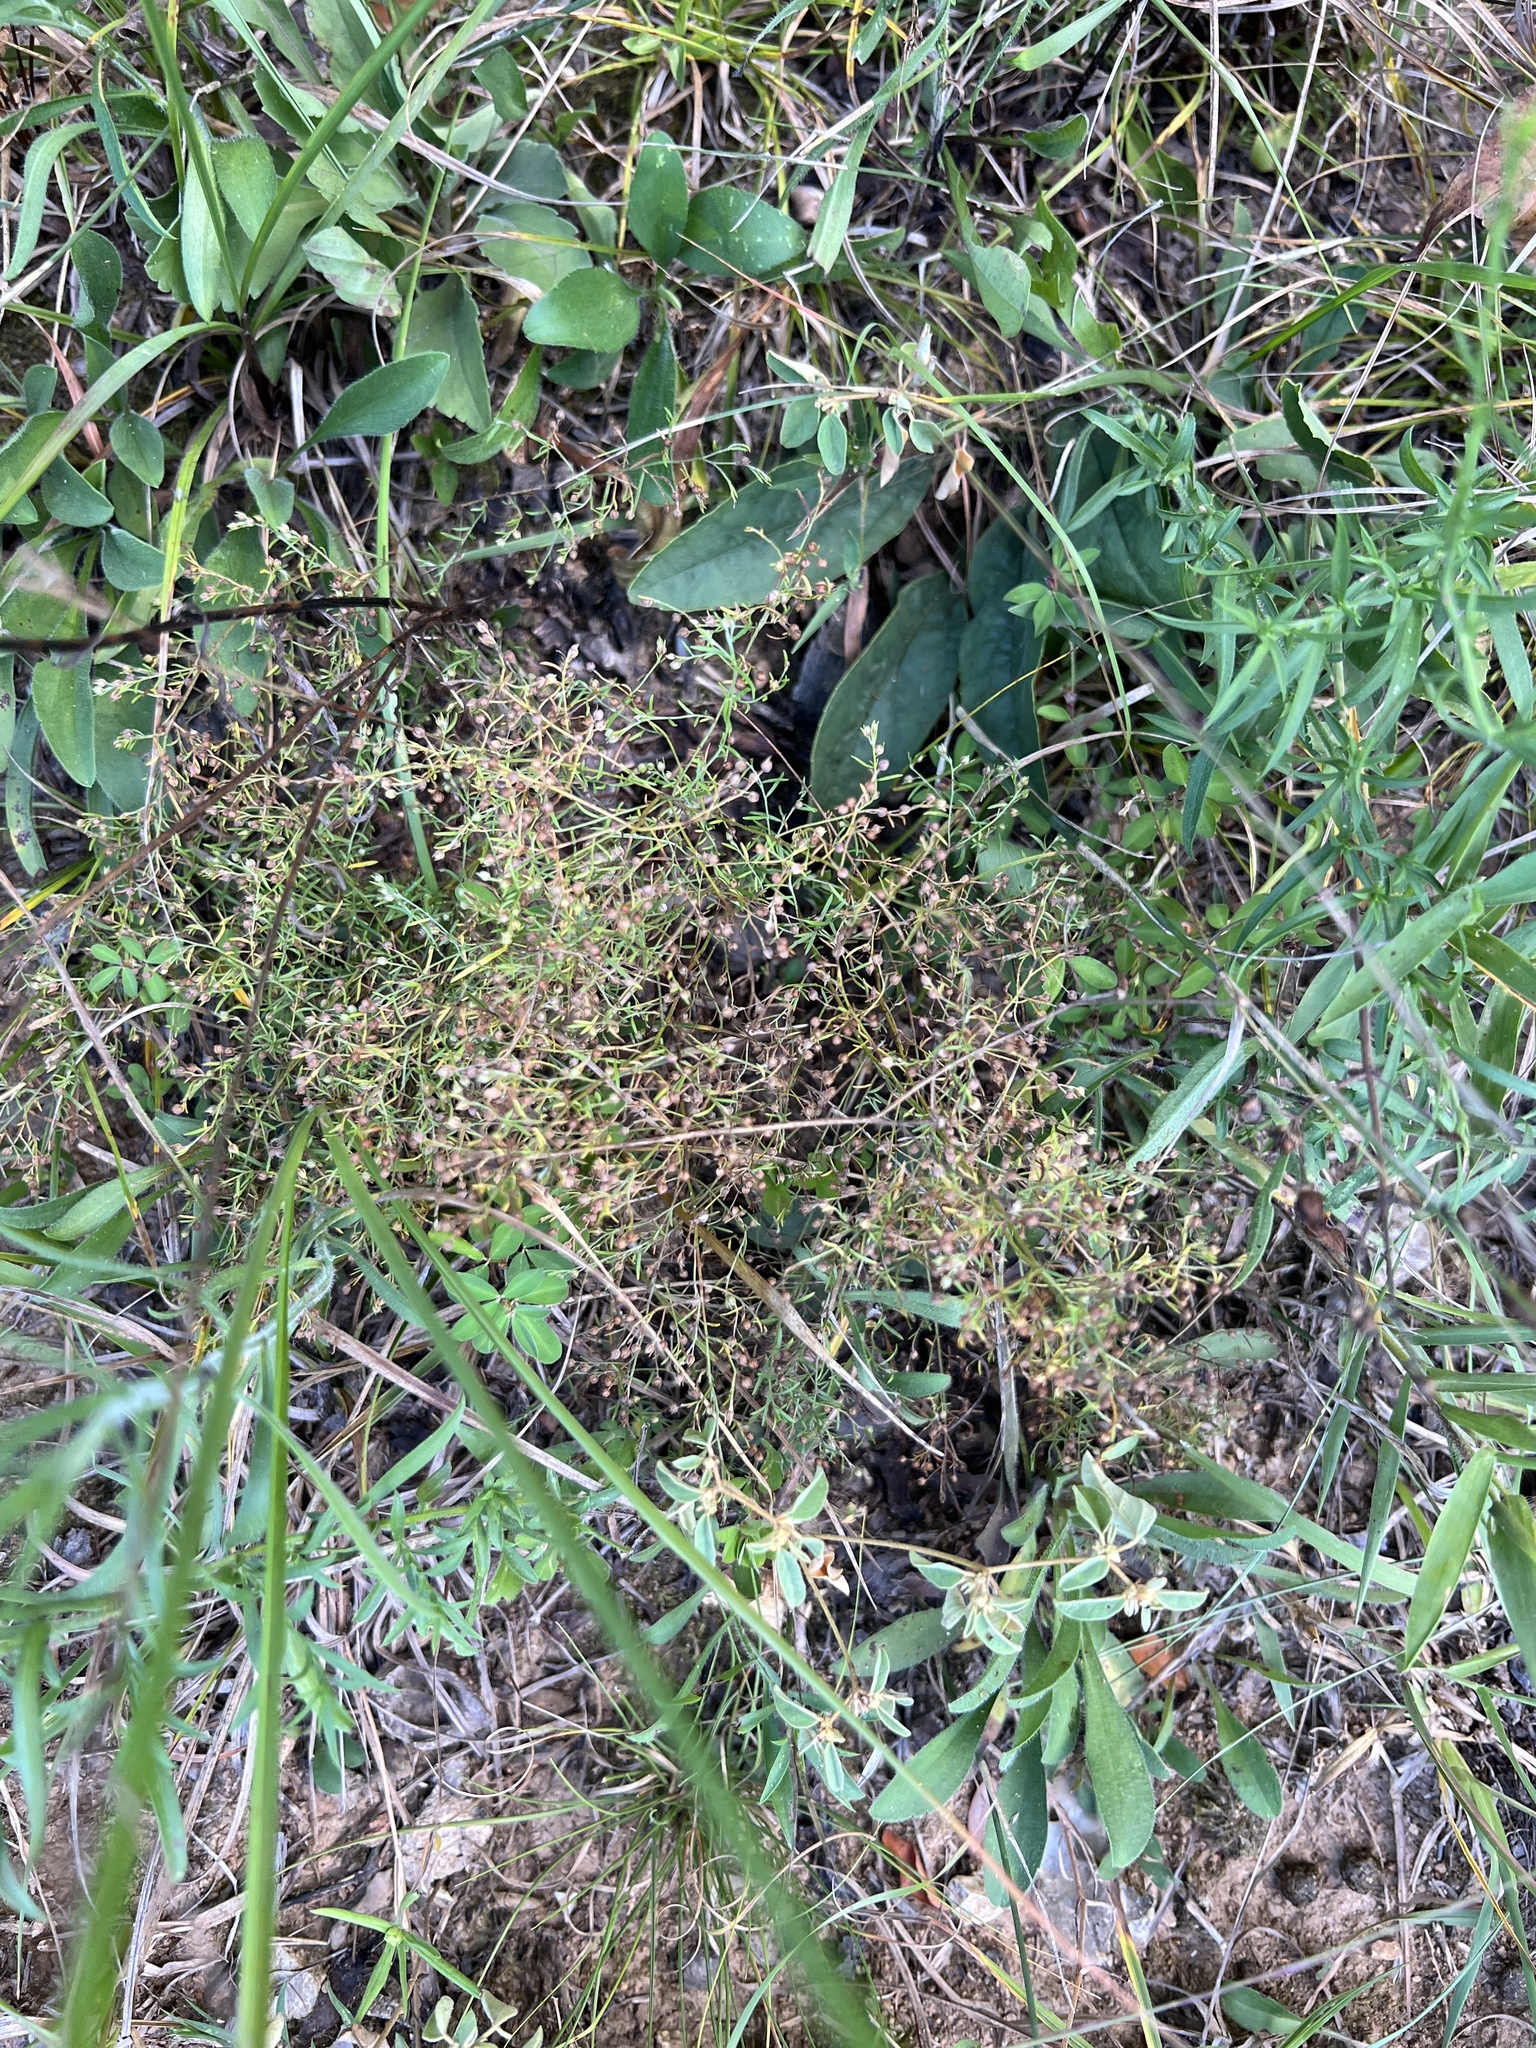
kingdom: Plantae
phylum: Tracheophyta
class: Magnoliopsida
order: Malvales
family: Cistaceae
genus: Lechea
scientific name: Lechea tenuifolia
